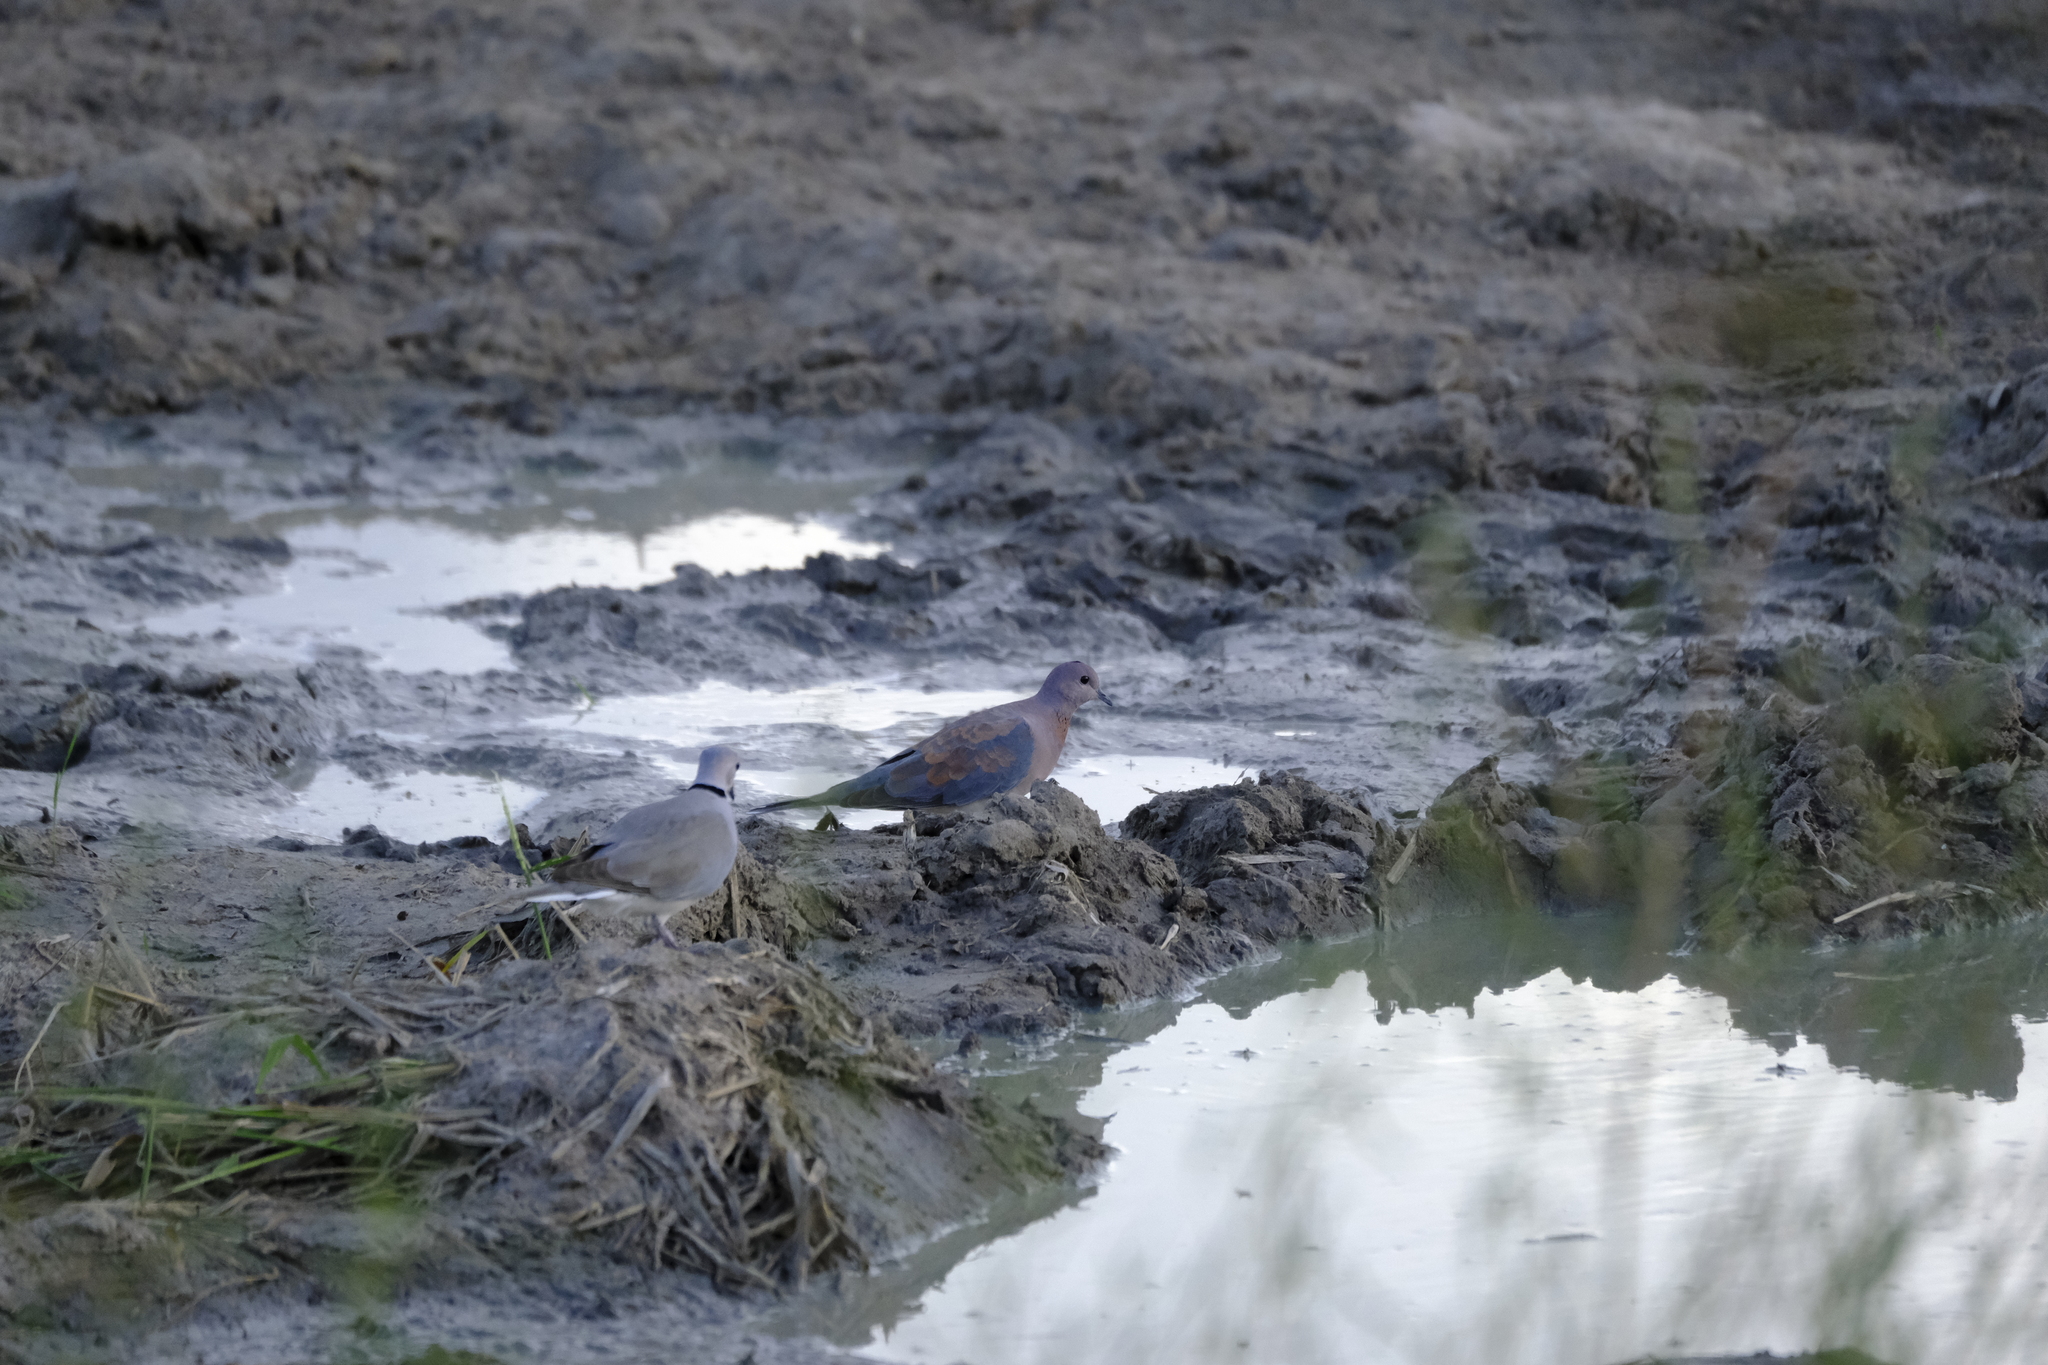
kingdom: Animalia
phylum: Chordata
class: Aves
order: Columbiformes
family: Columbidae
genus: Spilopelia
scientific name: Spilopelia senegalensis
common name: Laughing dove
